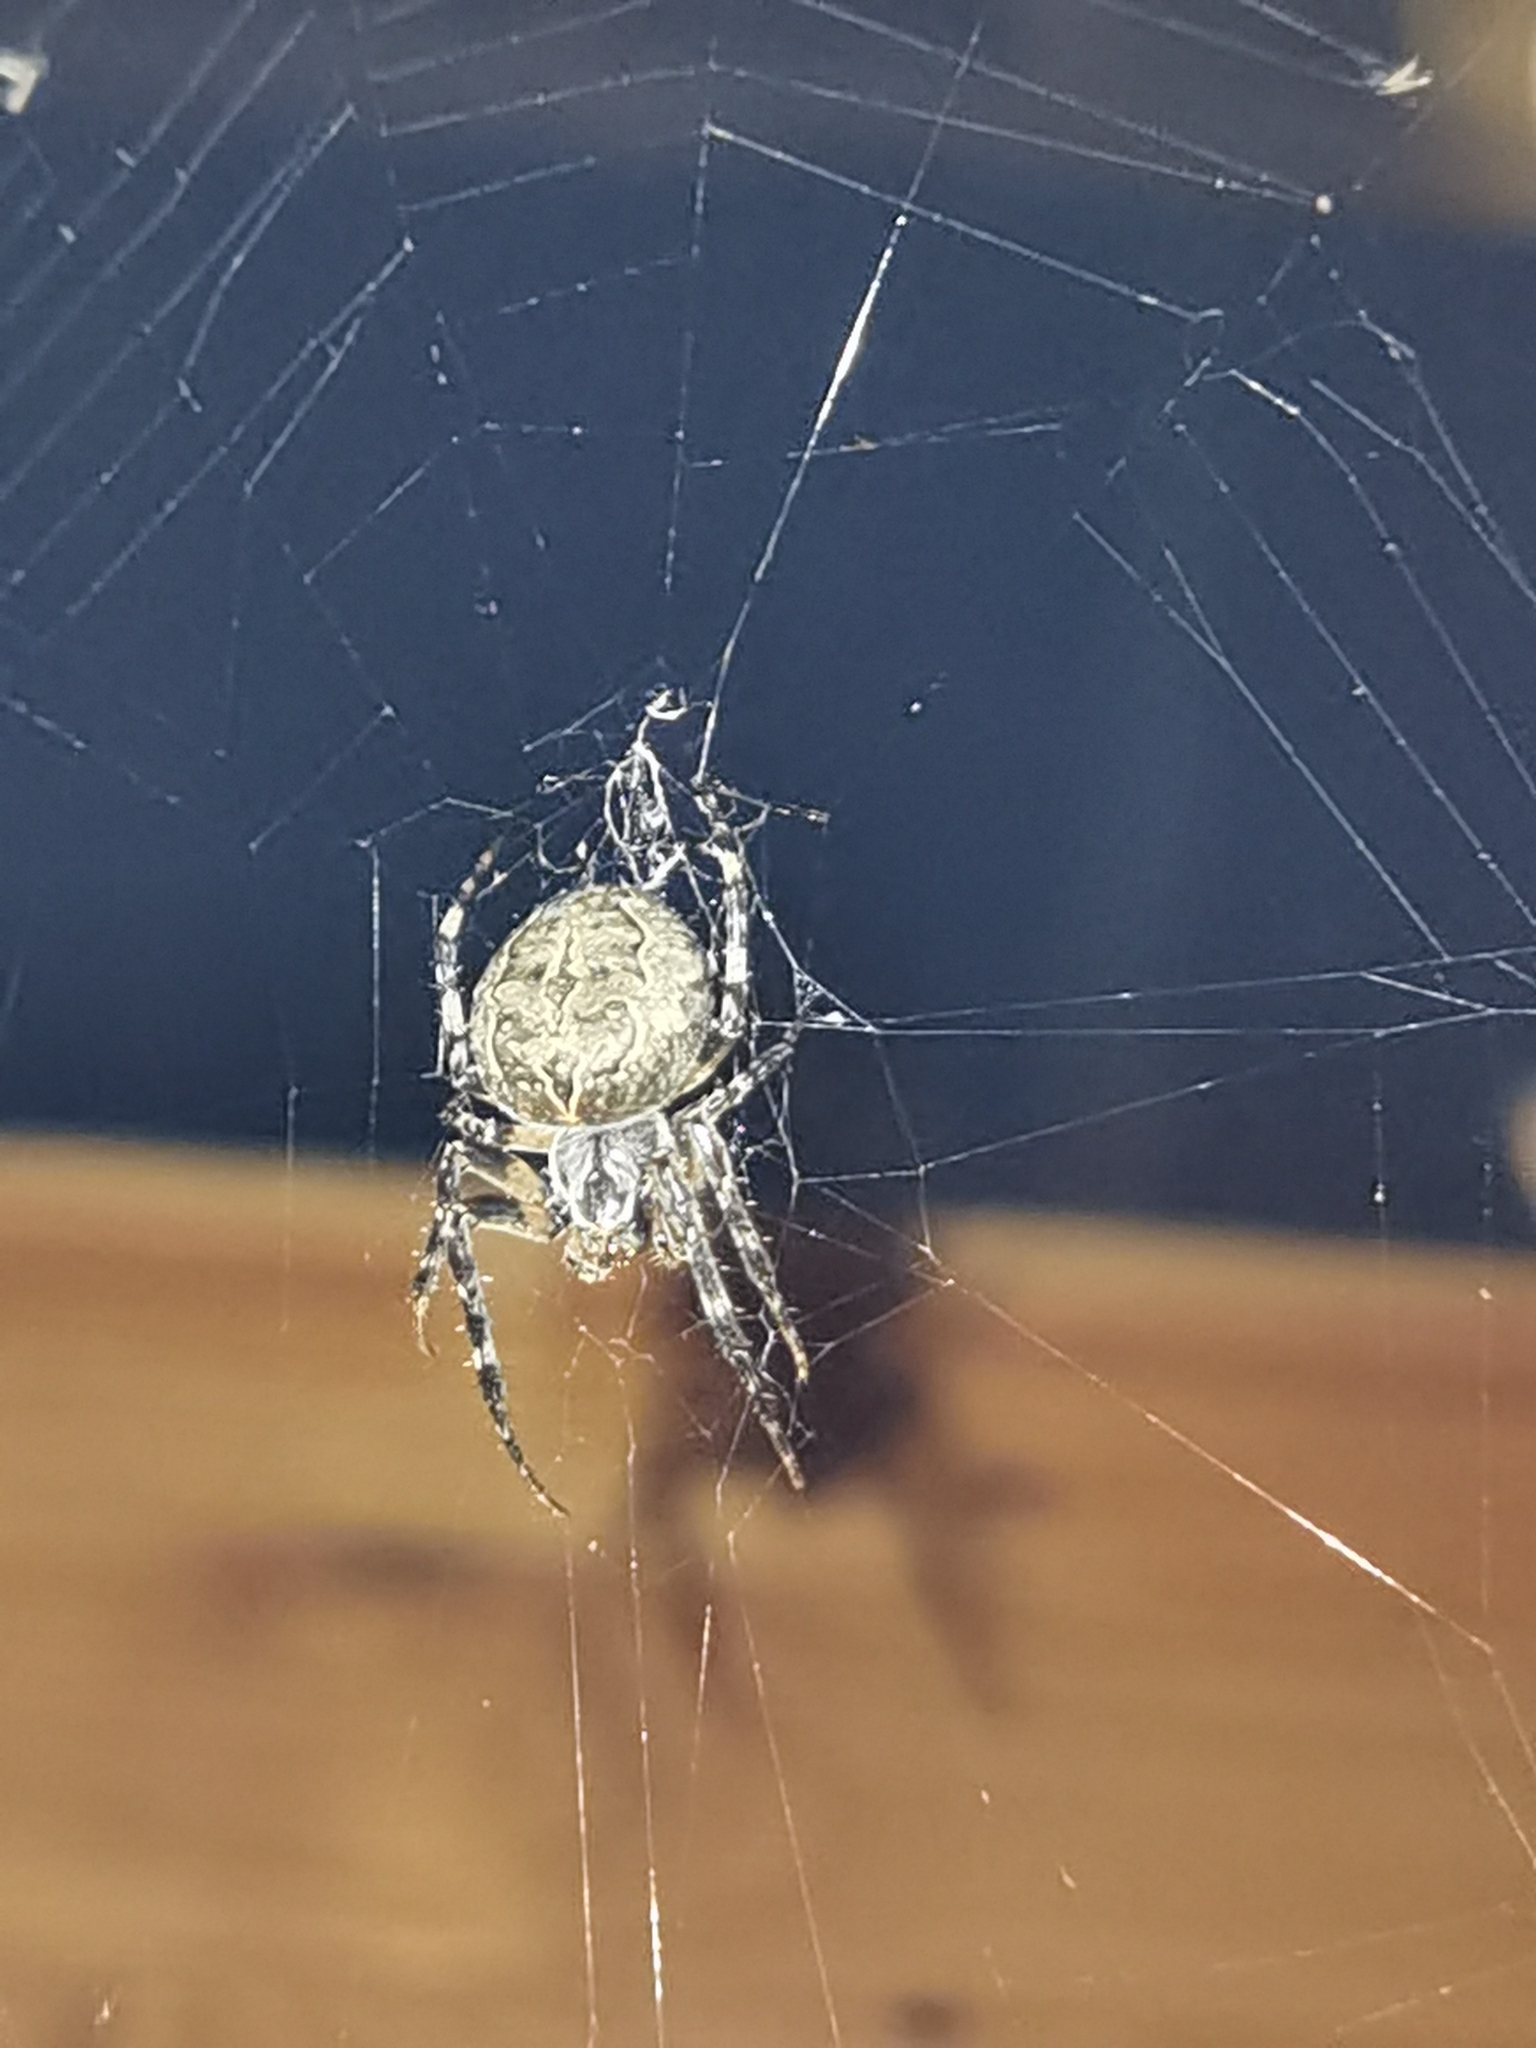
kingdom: Animalia
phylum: Arthropoda
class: Arachnida
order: Araneae
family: Araneidae
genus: Larinioides
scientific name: Larinioides sclopetarius
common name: Bridge orbweaver
